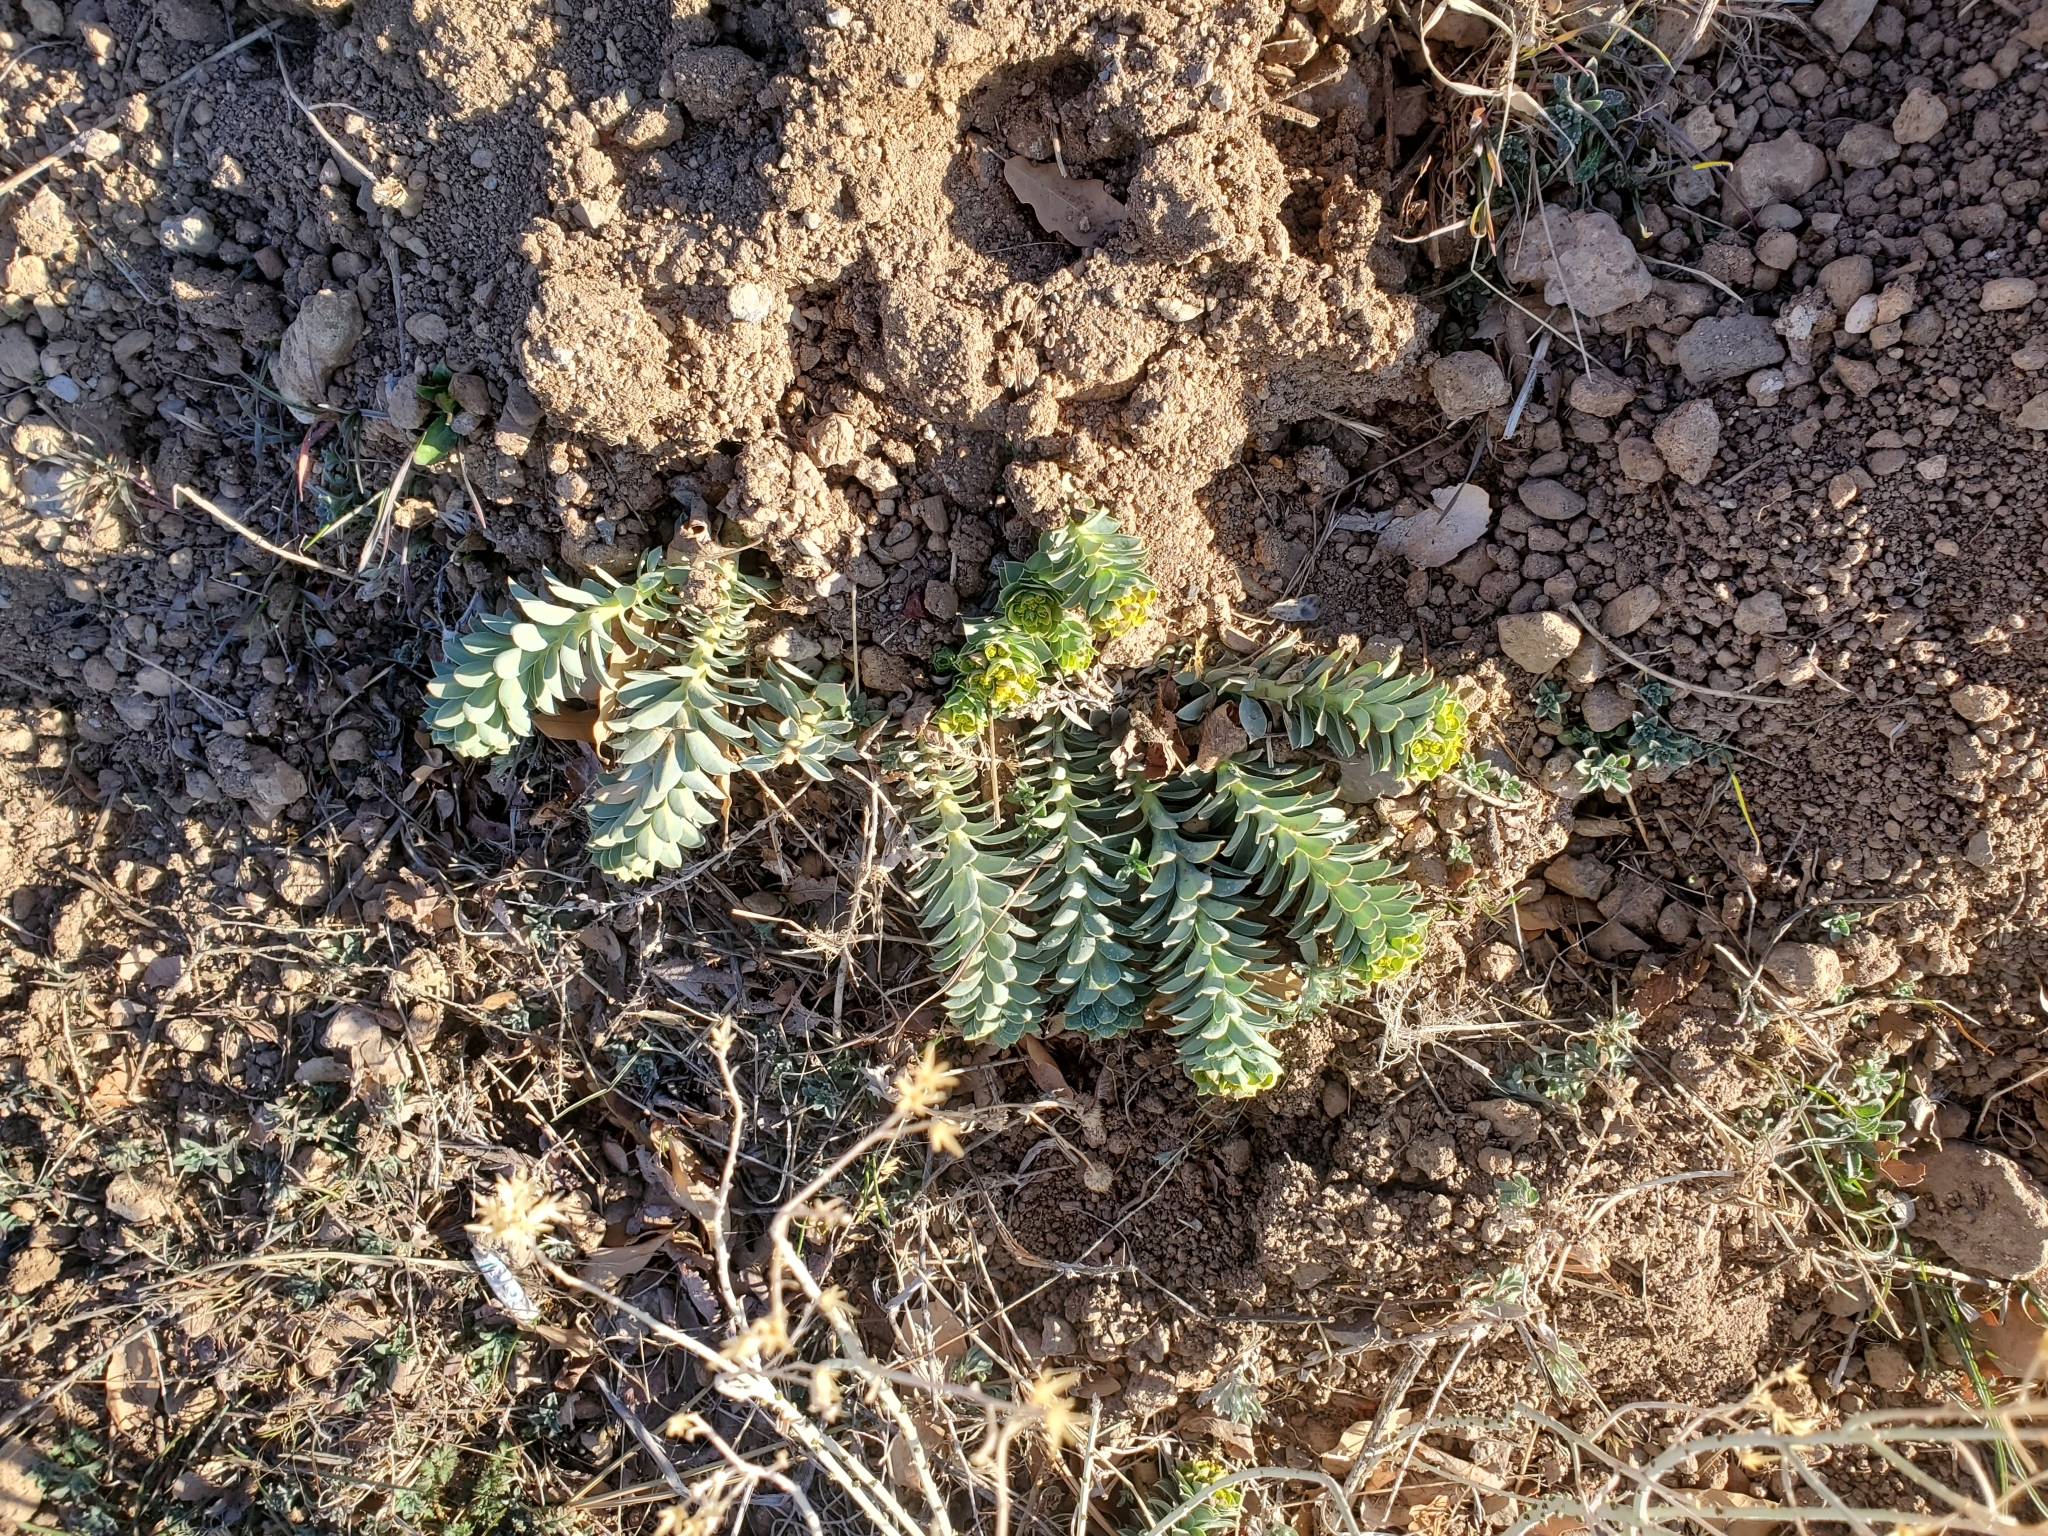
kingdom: Plantae
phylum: Tracheophyta
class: Magnoliopsida
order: Malpighiales
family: Euphorbiaceae
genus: Euphorbia
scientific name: Euphorbia myrsinites
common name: Myrtle spurge
